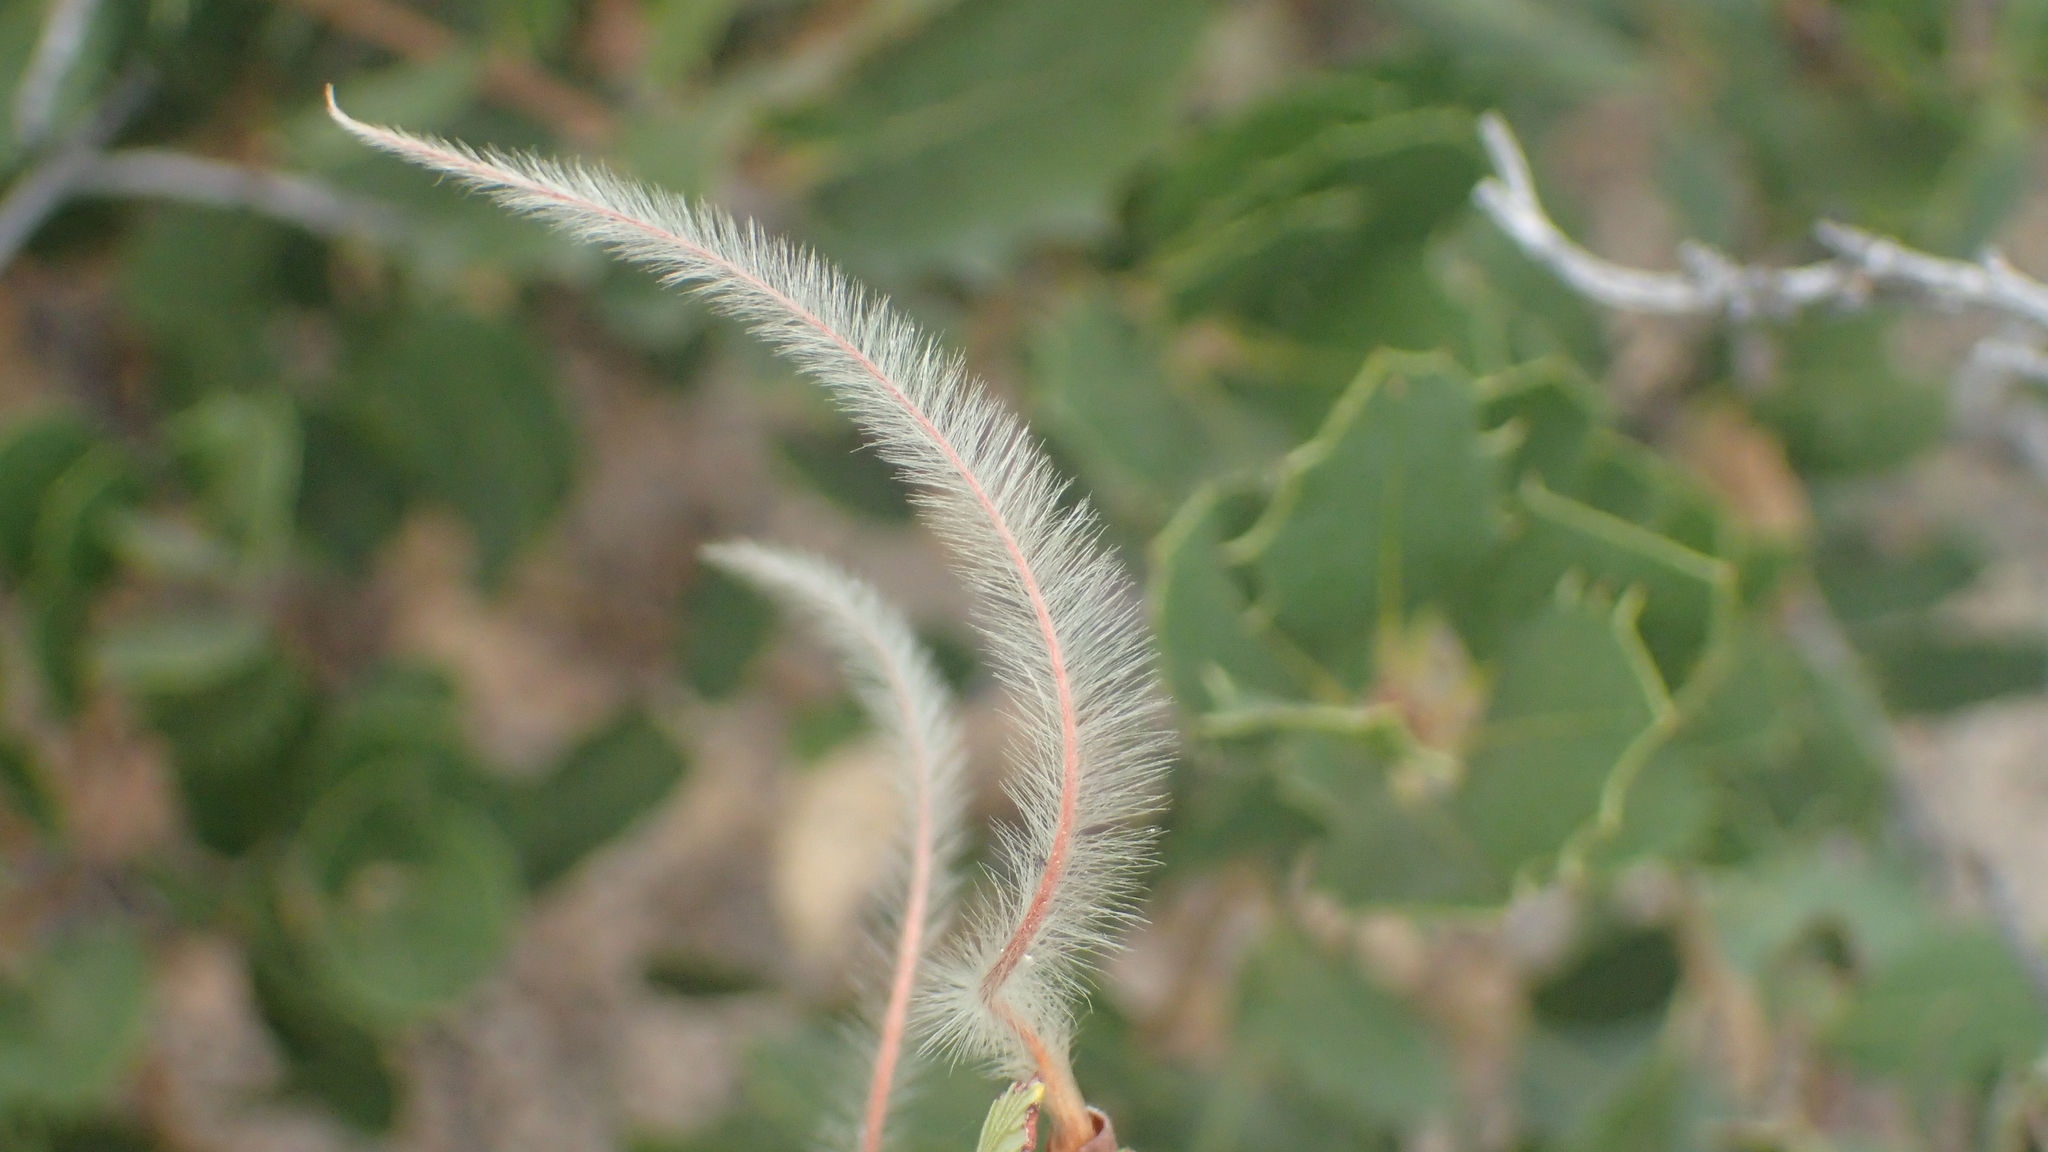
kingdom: Plantae
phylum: Tracheophyta
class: Magnoliopsida
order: Rosales
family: Rosaceae
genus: Cercocarpus
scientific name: Cercocarpus
